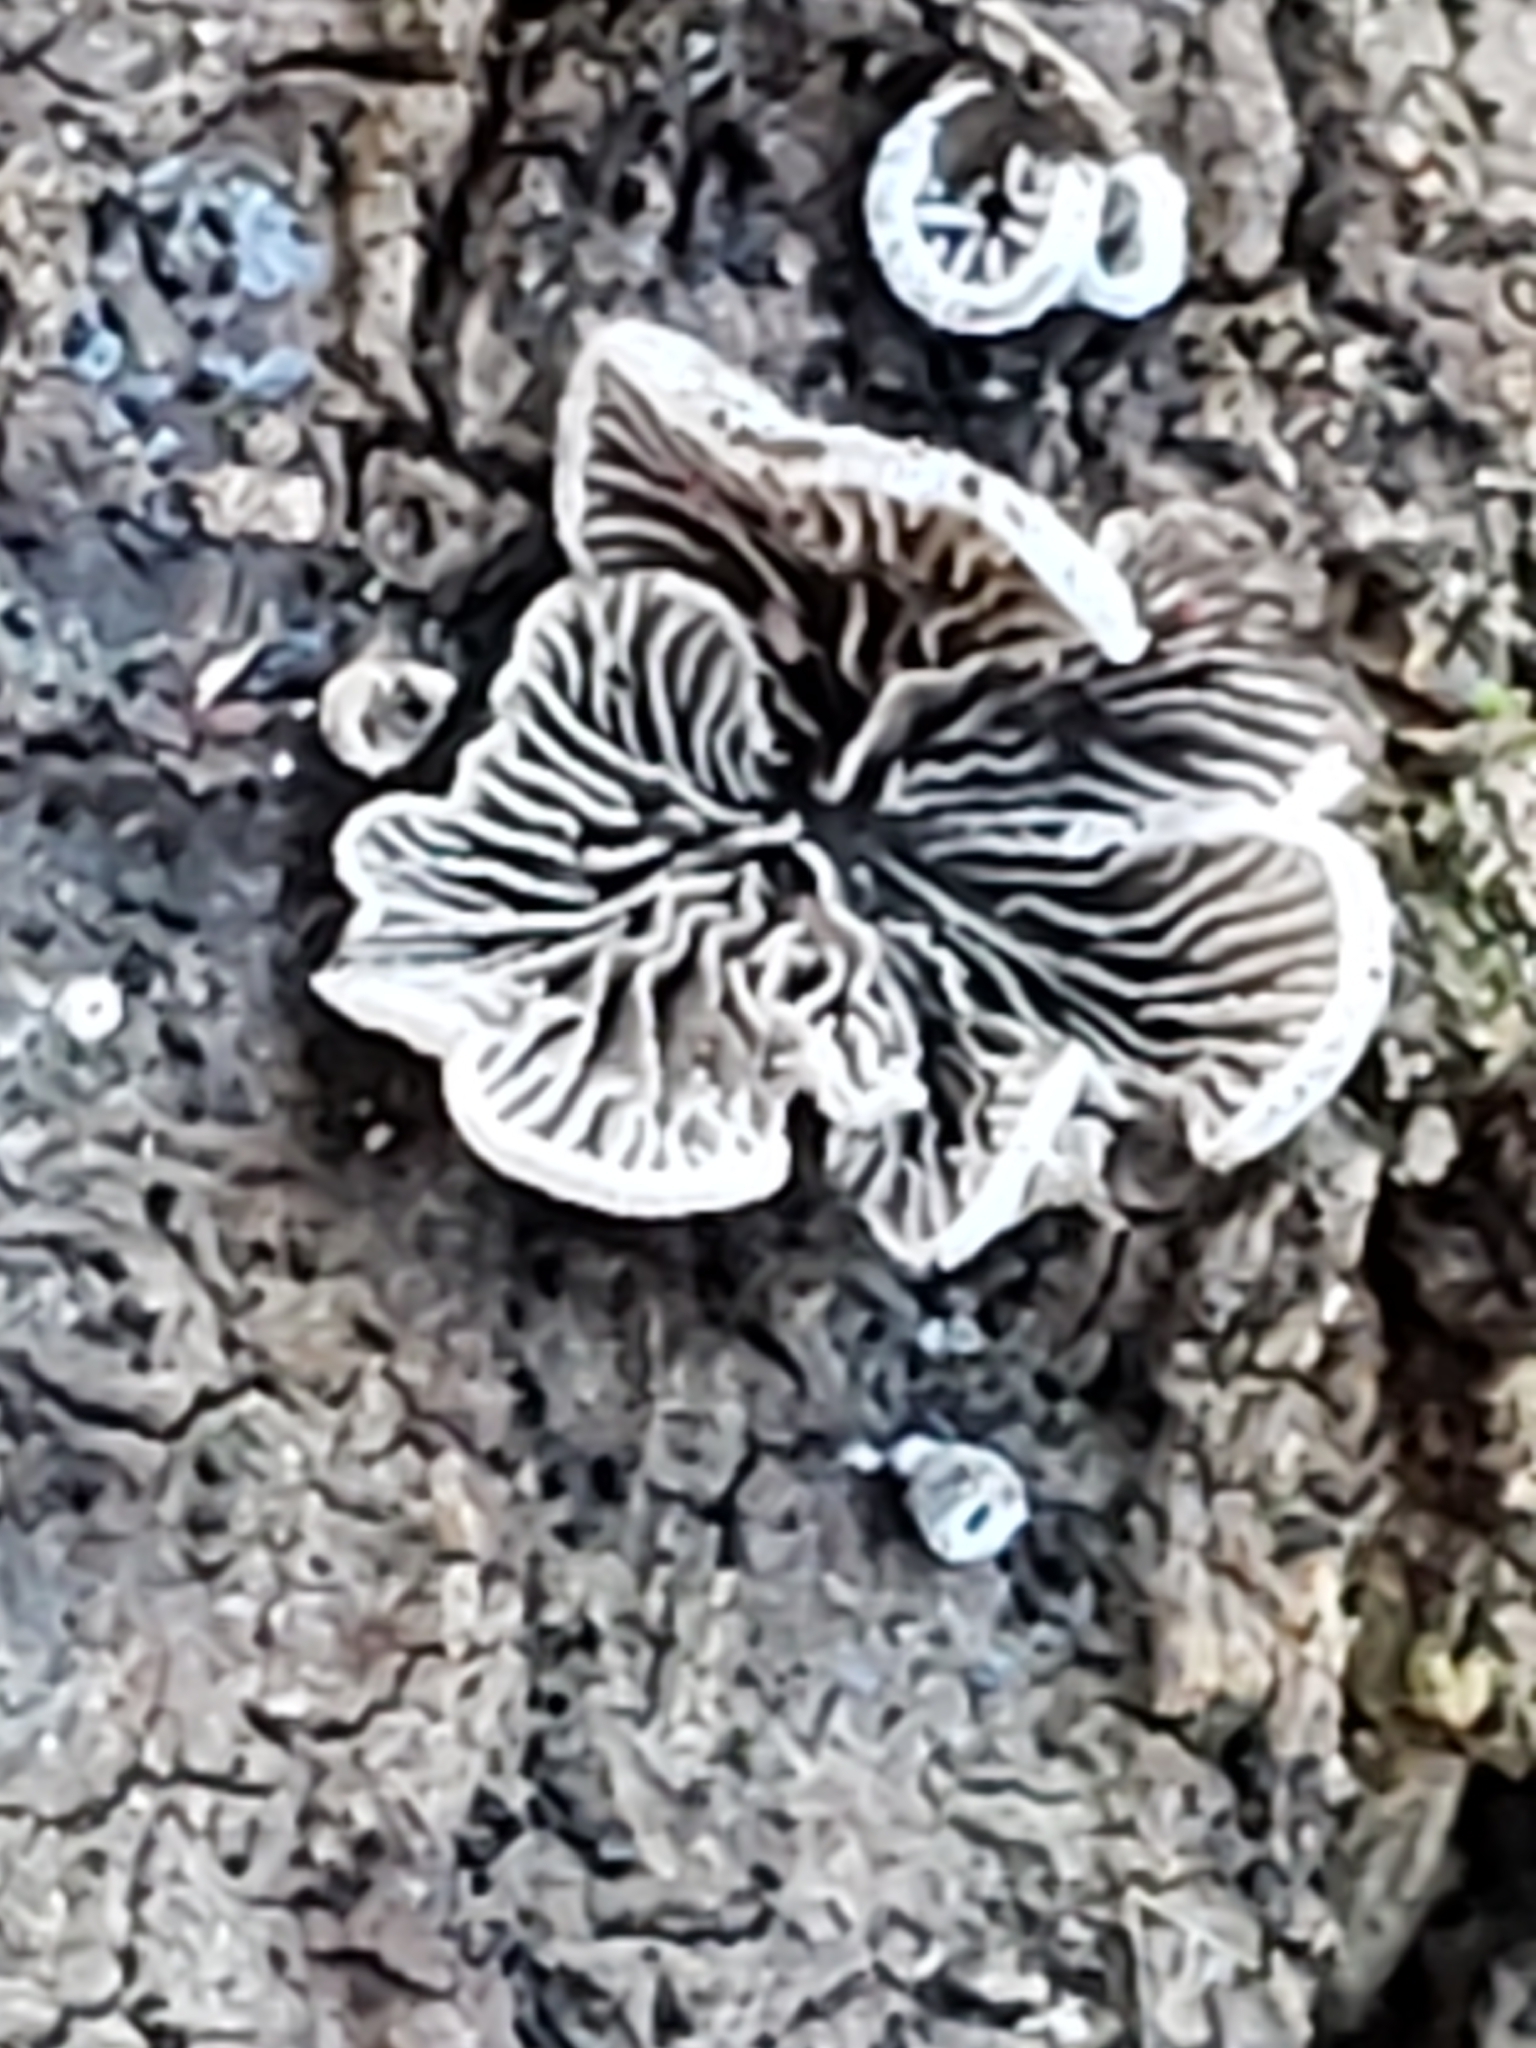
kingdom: Fungi
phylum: Basidiomycota
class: Agaricomycetes
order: Agaricales
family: Pleurotaceae
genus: Resupinatus
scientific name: Resupinatus applicatus
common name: Smoked oysterling
